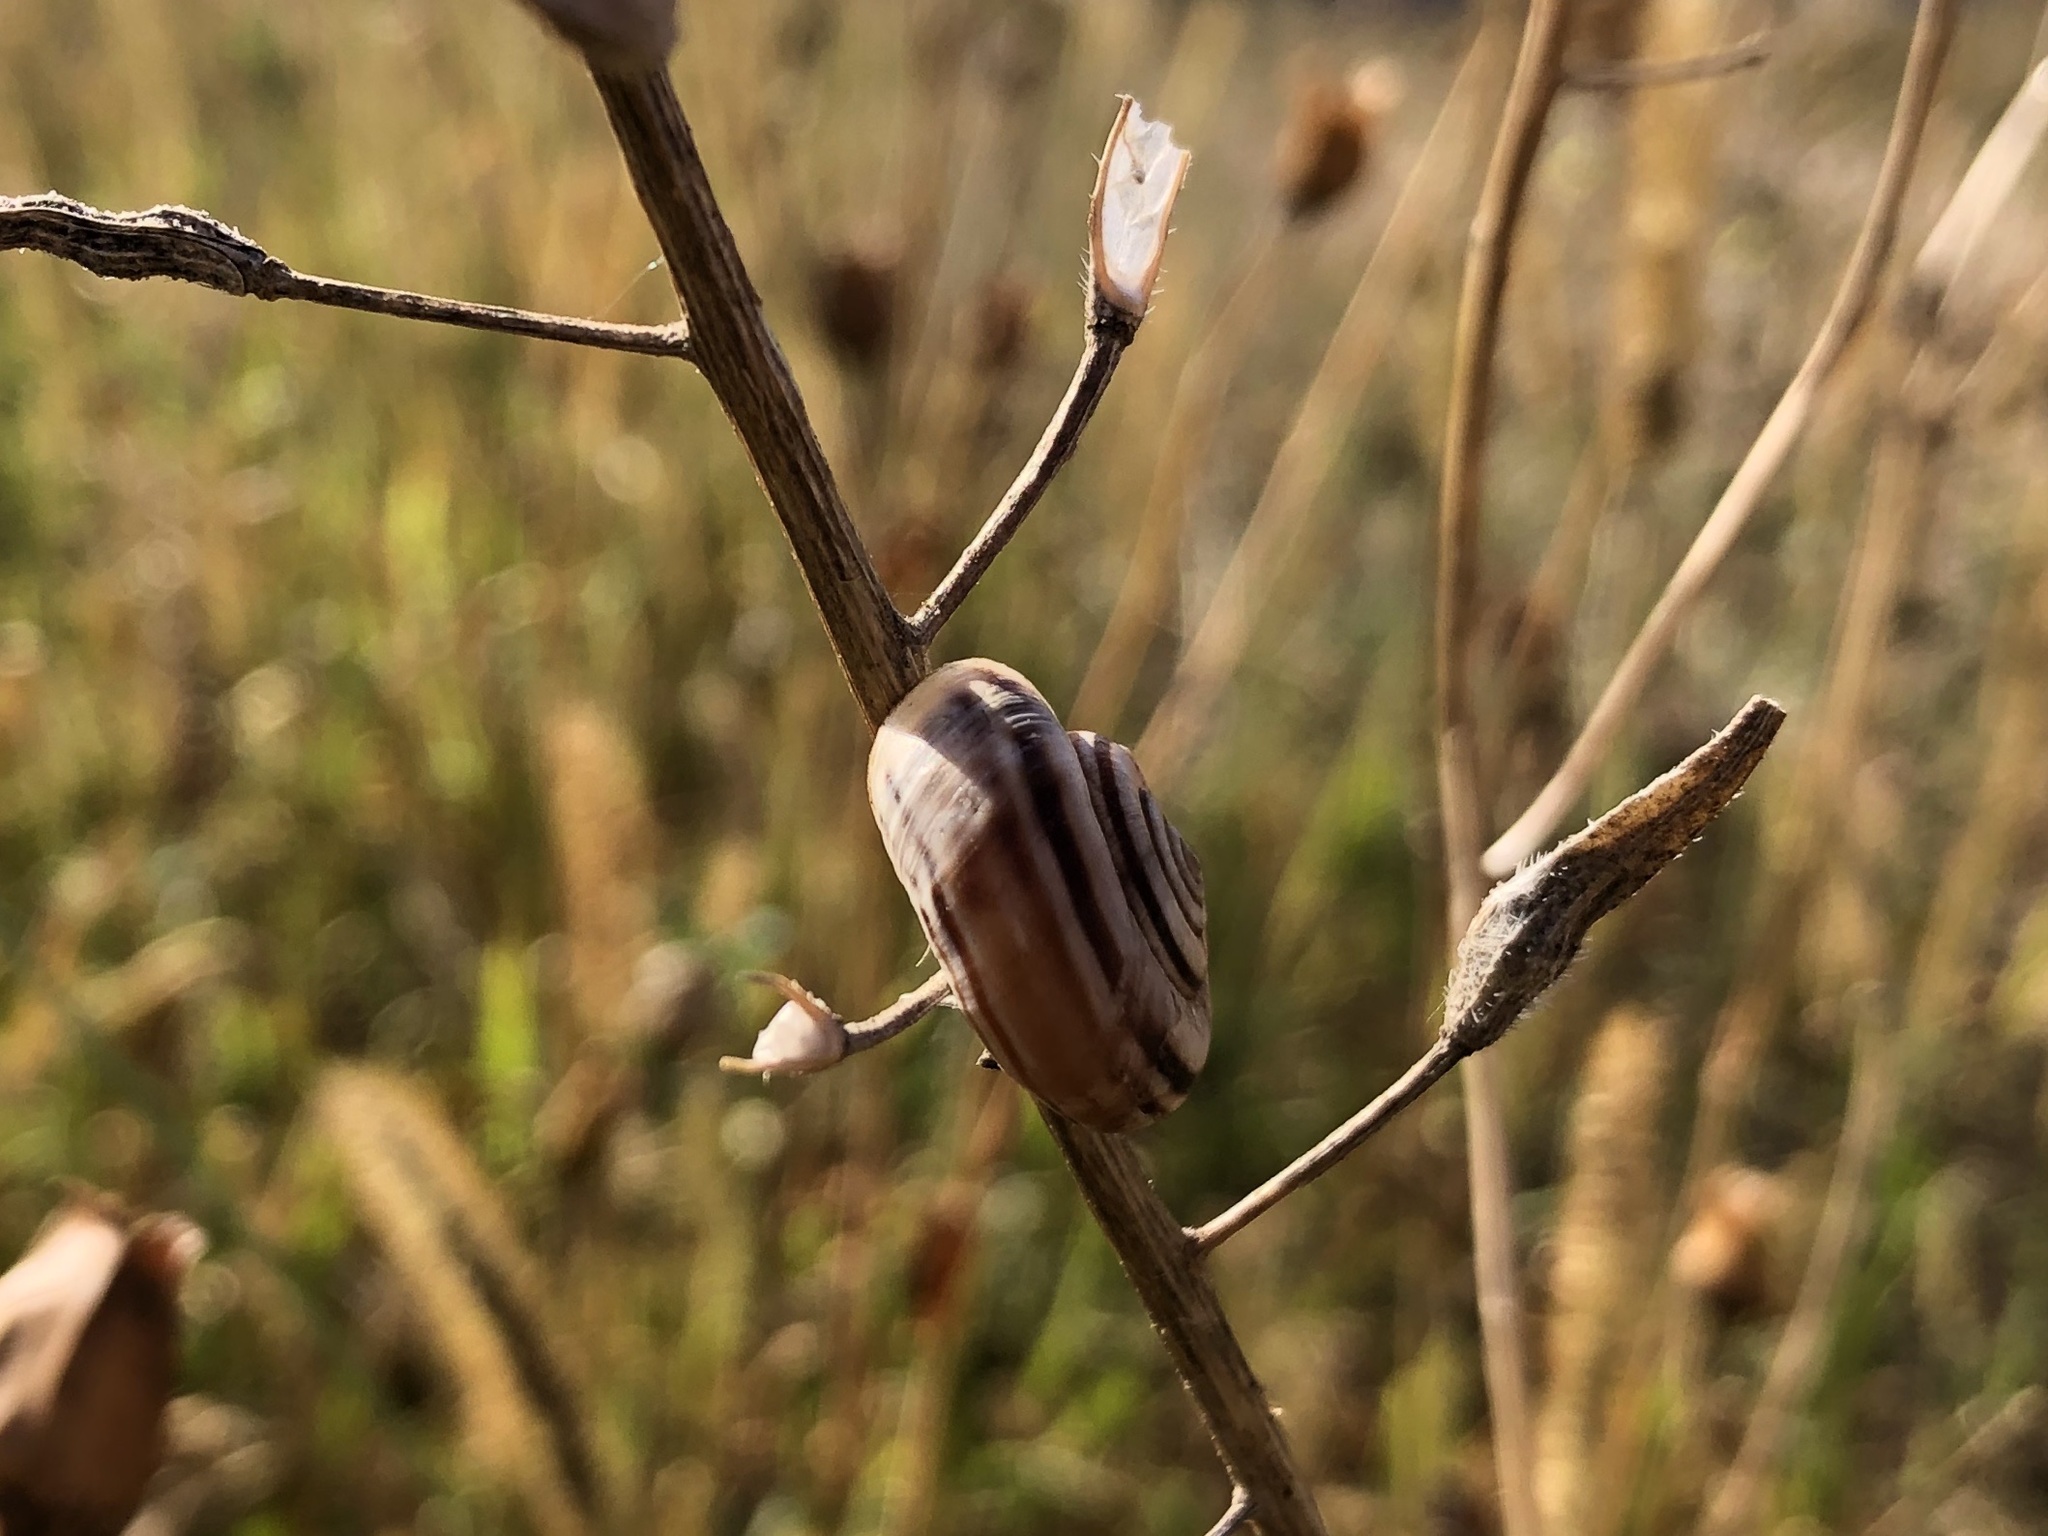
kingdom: Animalia
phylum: Mollusca
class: Gastropoda
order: Stylommatophora
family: Geomitridae
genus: Xerolenta
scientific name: Xerolenta obvia
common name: White heath snail
